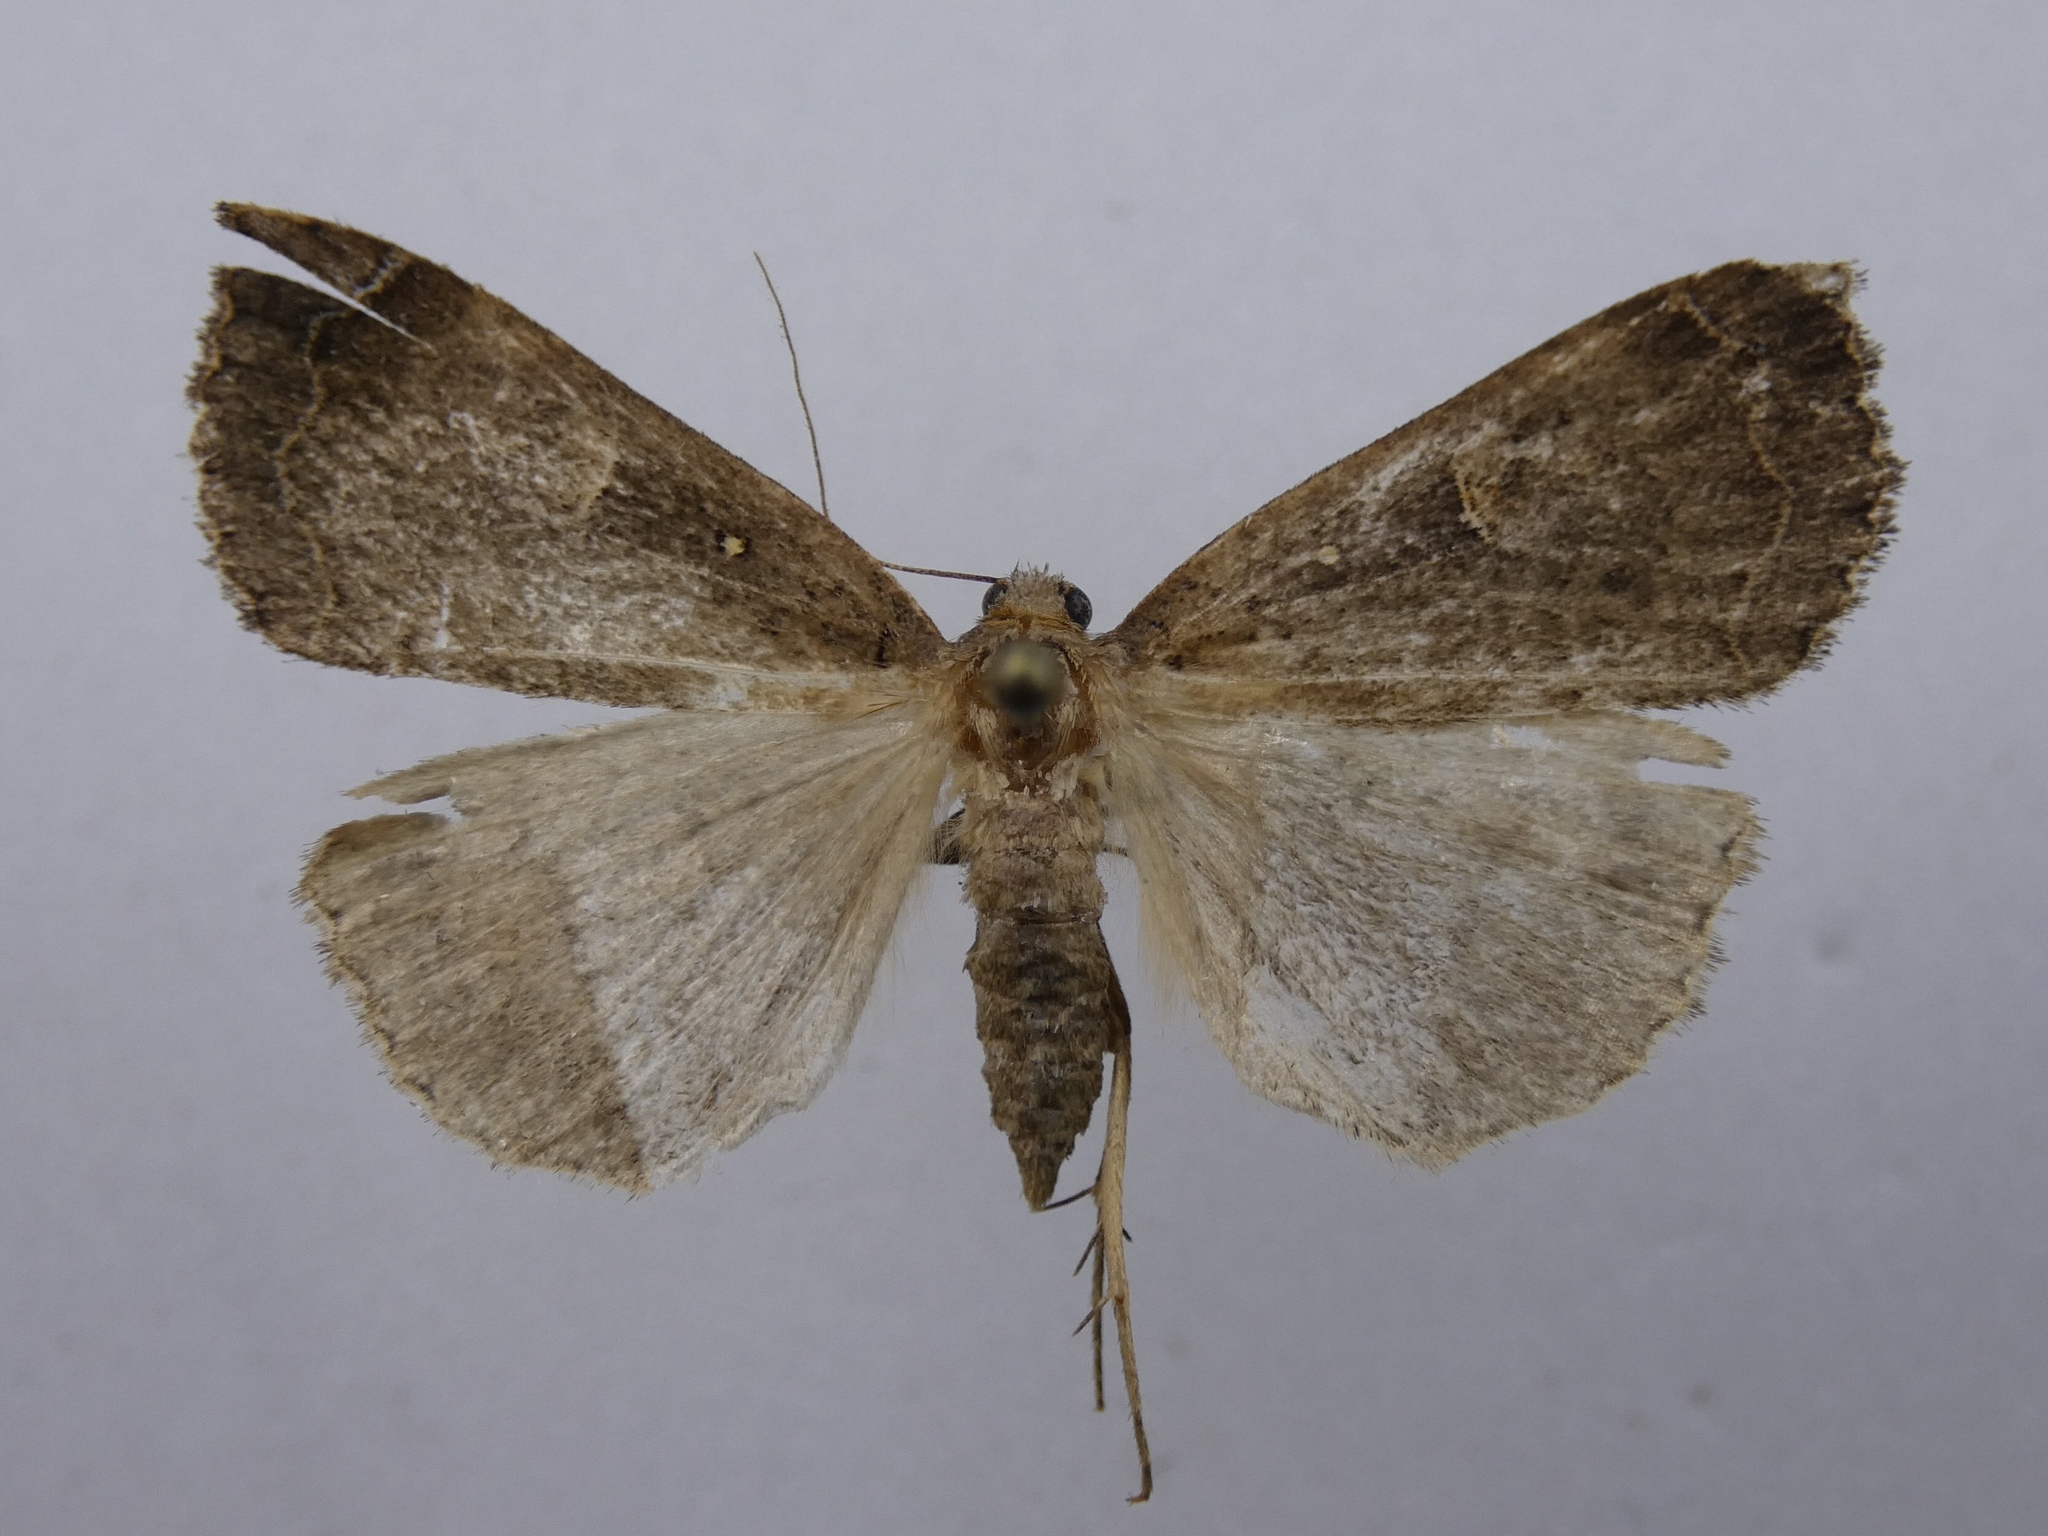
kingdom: Animalia
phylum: Arthropoda
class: Insecta
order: Lepidoptera
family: Erebidae
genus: Rhapsa
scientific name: Rhapsa scotosialis
